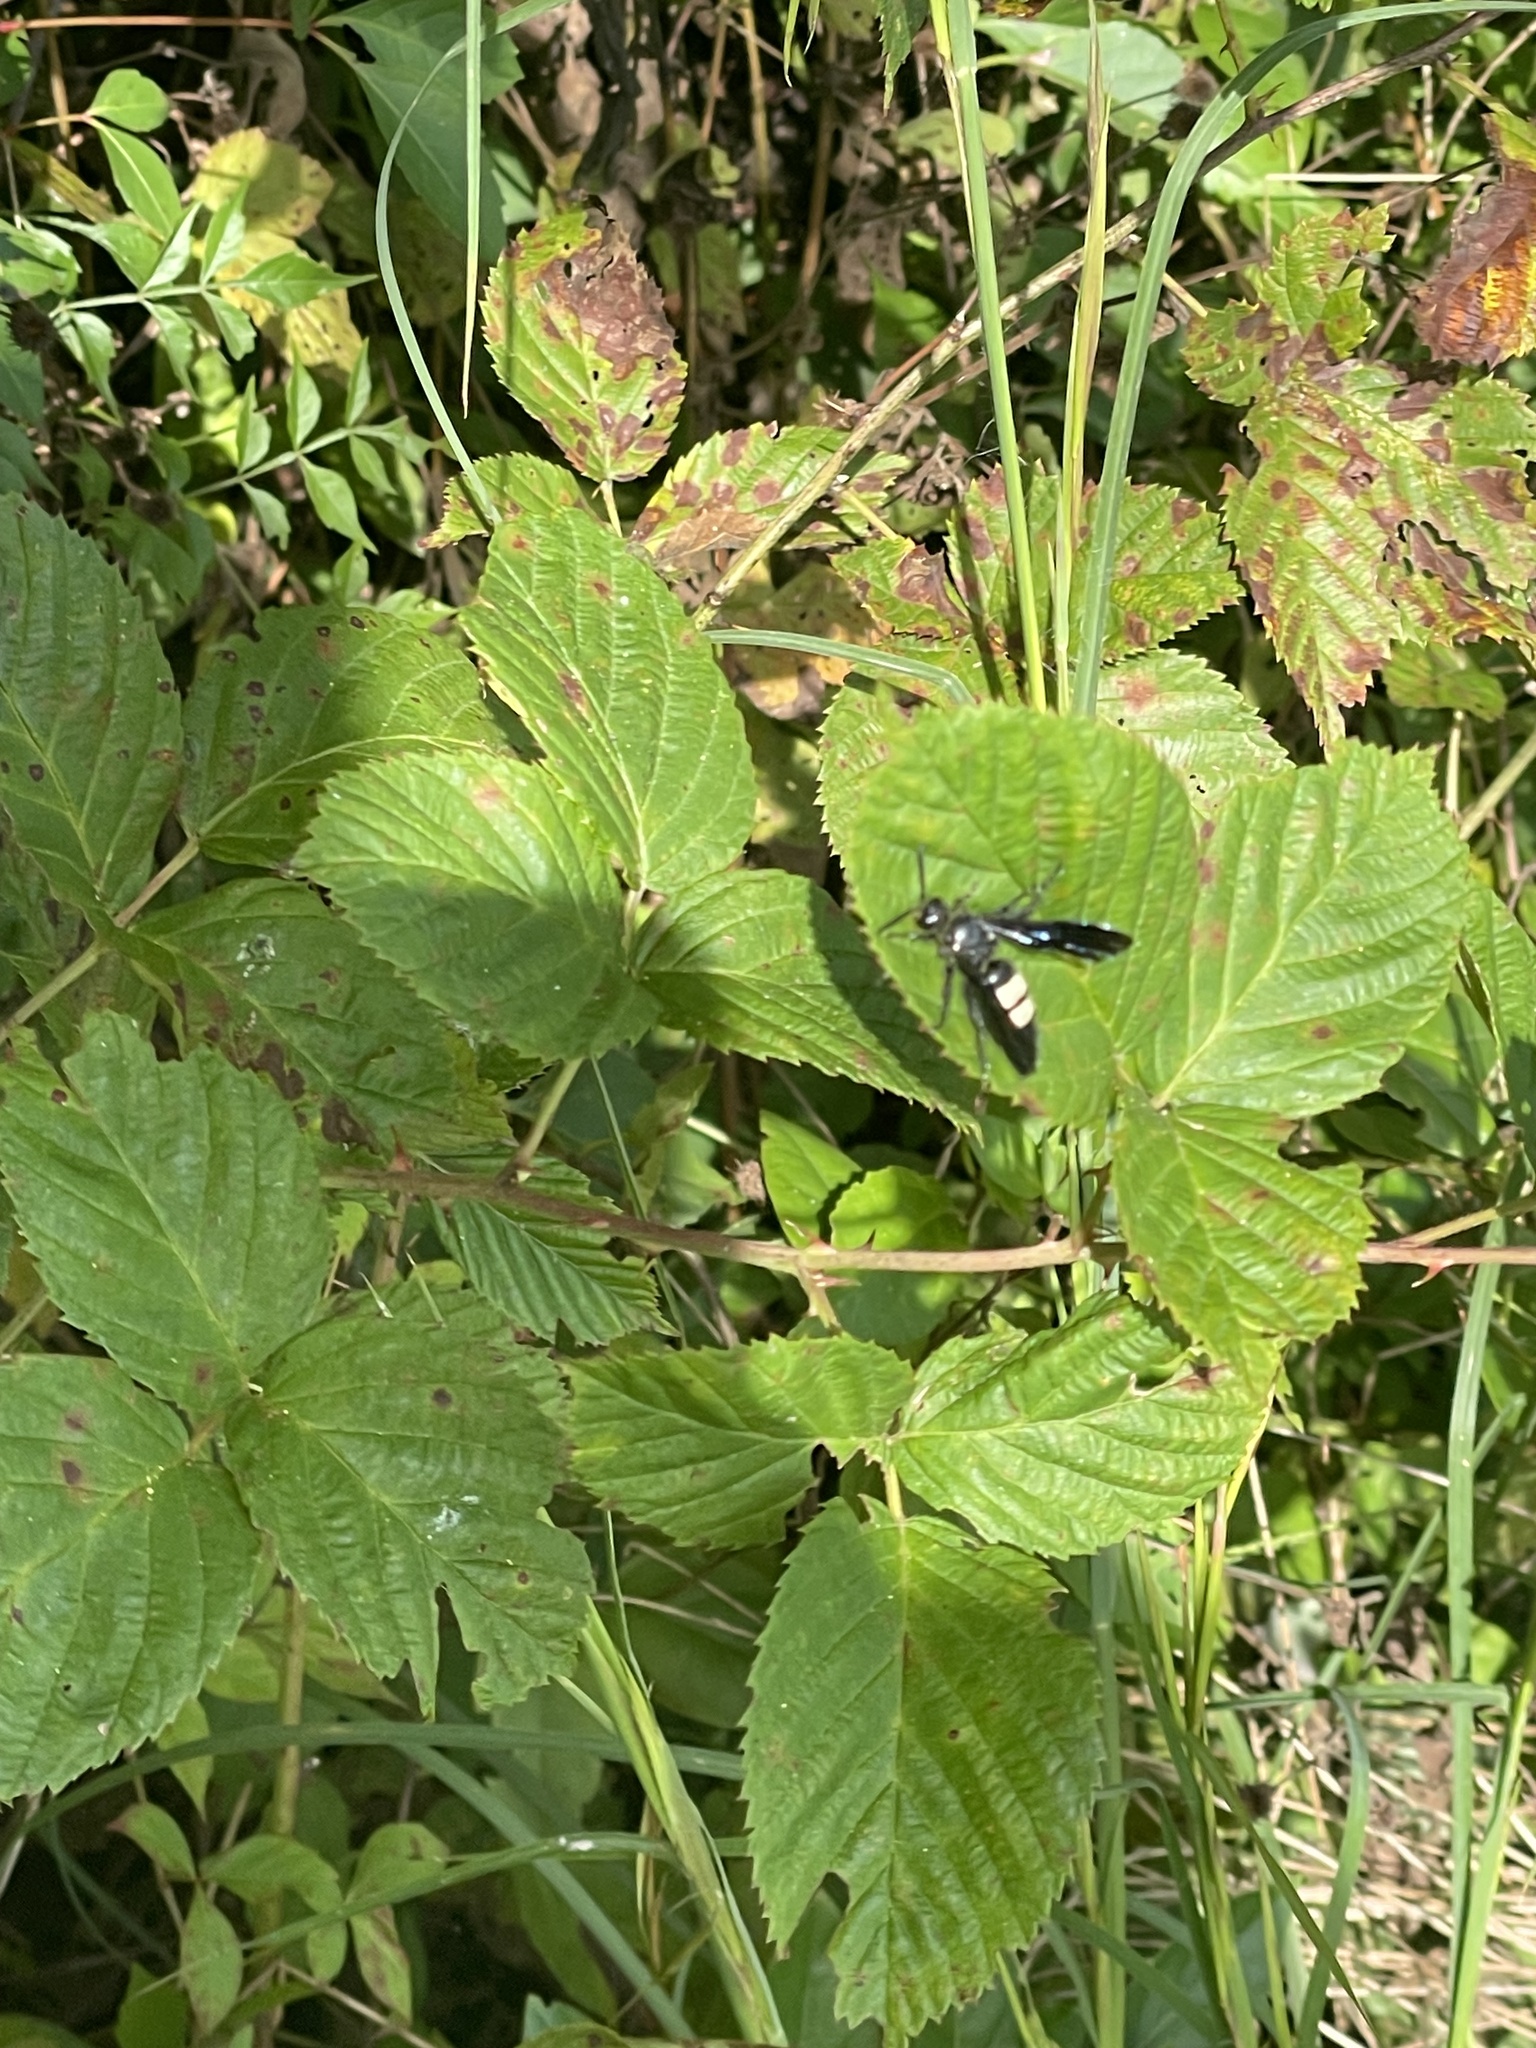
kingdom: Animalia
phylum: Arthropoda
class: Insecta
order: Hymenoptera
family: Scoliidae
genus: Scolia
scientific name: Scolia bicincta
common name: Double-banded scoliid wasp
